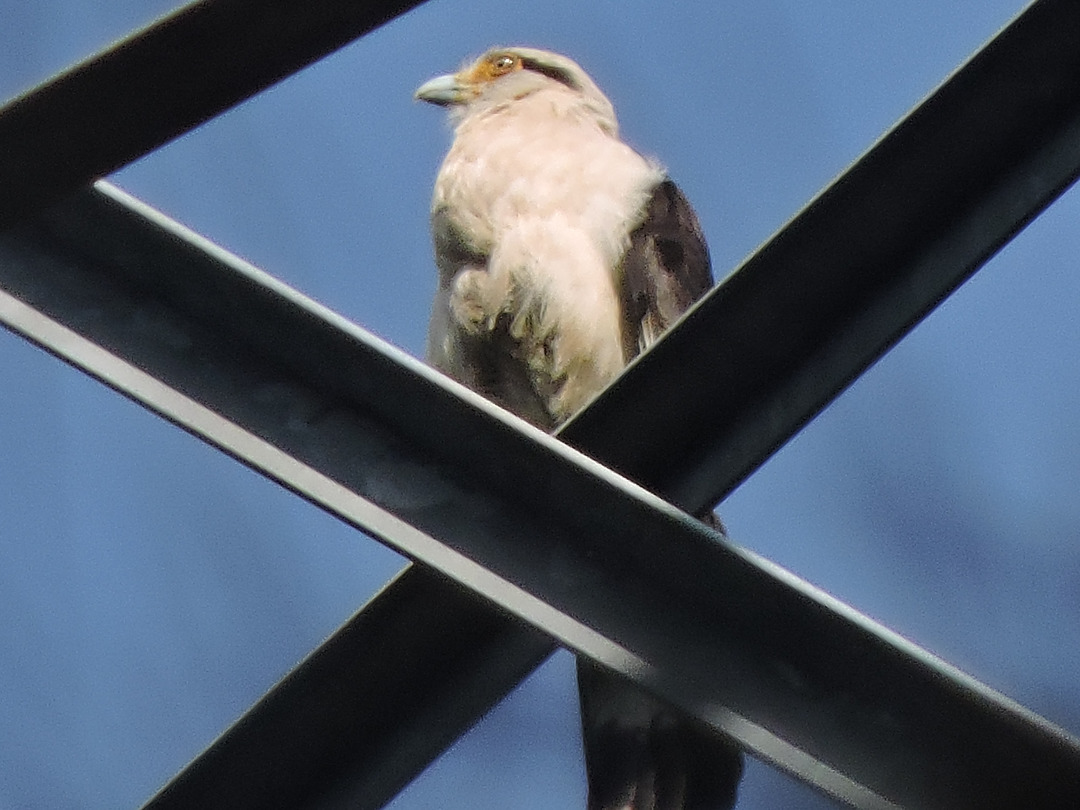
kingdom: Animalia
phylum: Chordata
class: Aves
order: Falconiformes
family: Falconidae
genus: Daptrius
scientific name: Daptrius
